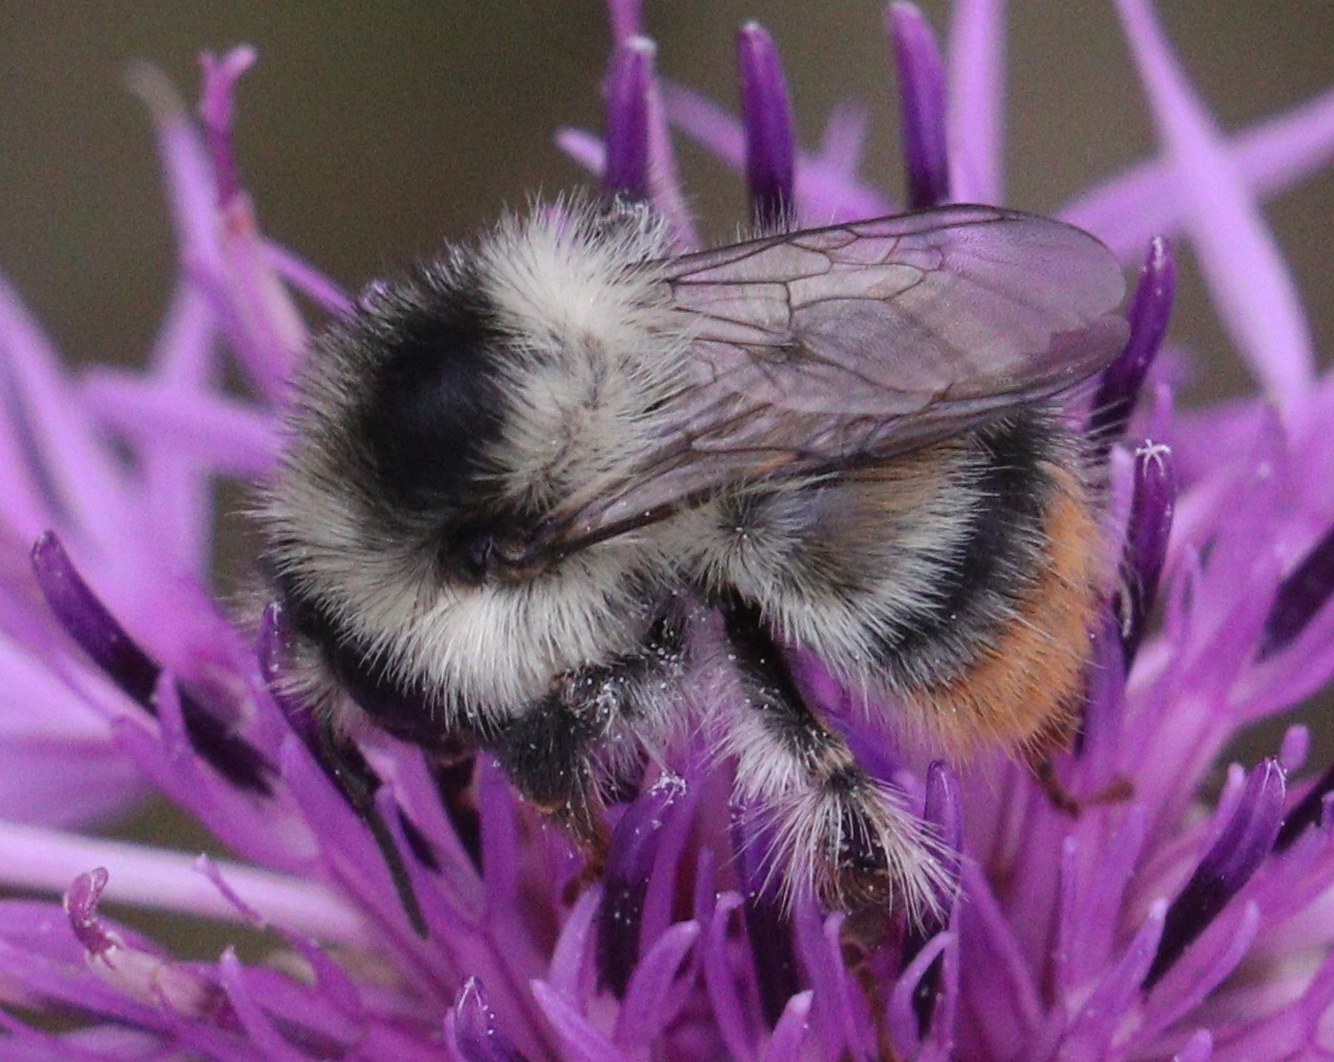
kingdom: Animalia
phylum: Arthropoda
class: Insecta
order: Hymenoptera
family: Apidae
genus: Bombus
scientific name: Bombus sylvarum
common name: Shrill carder bee
